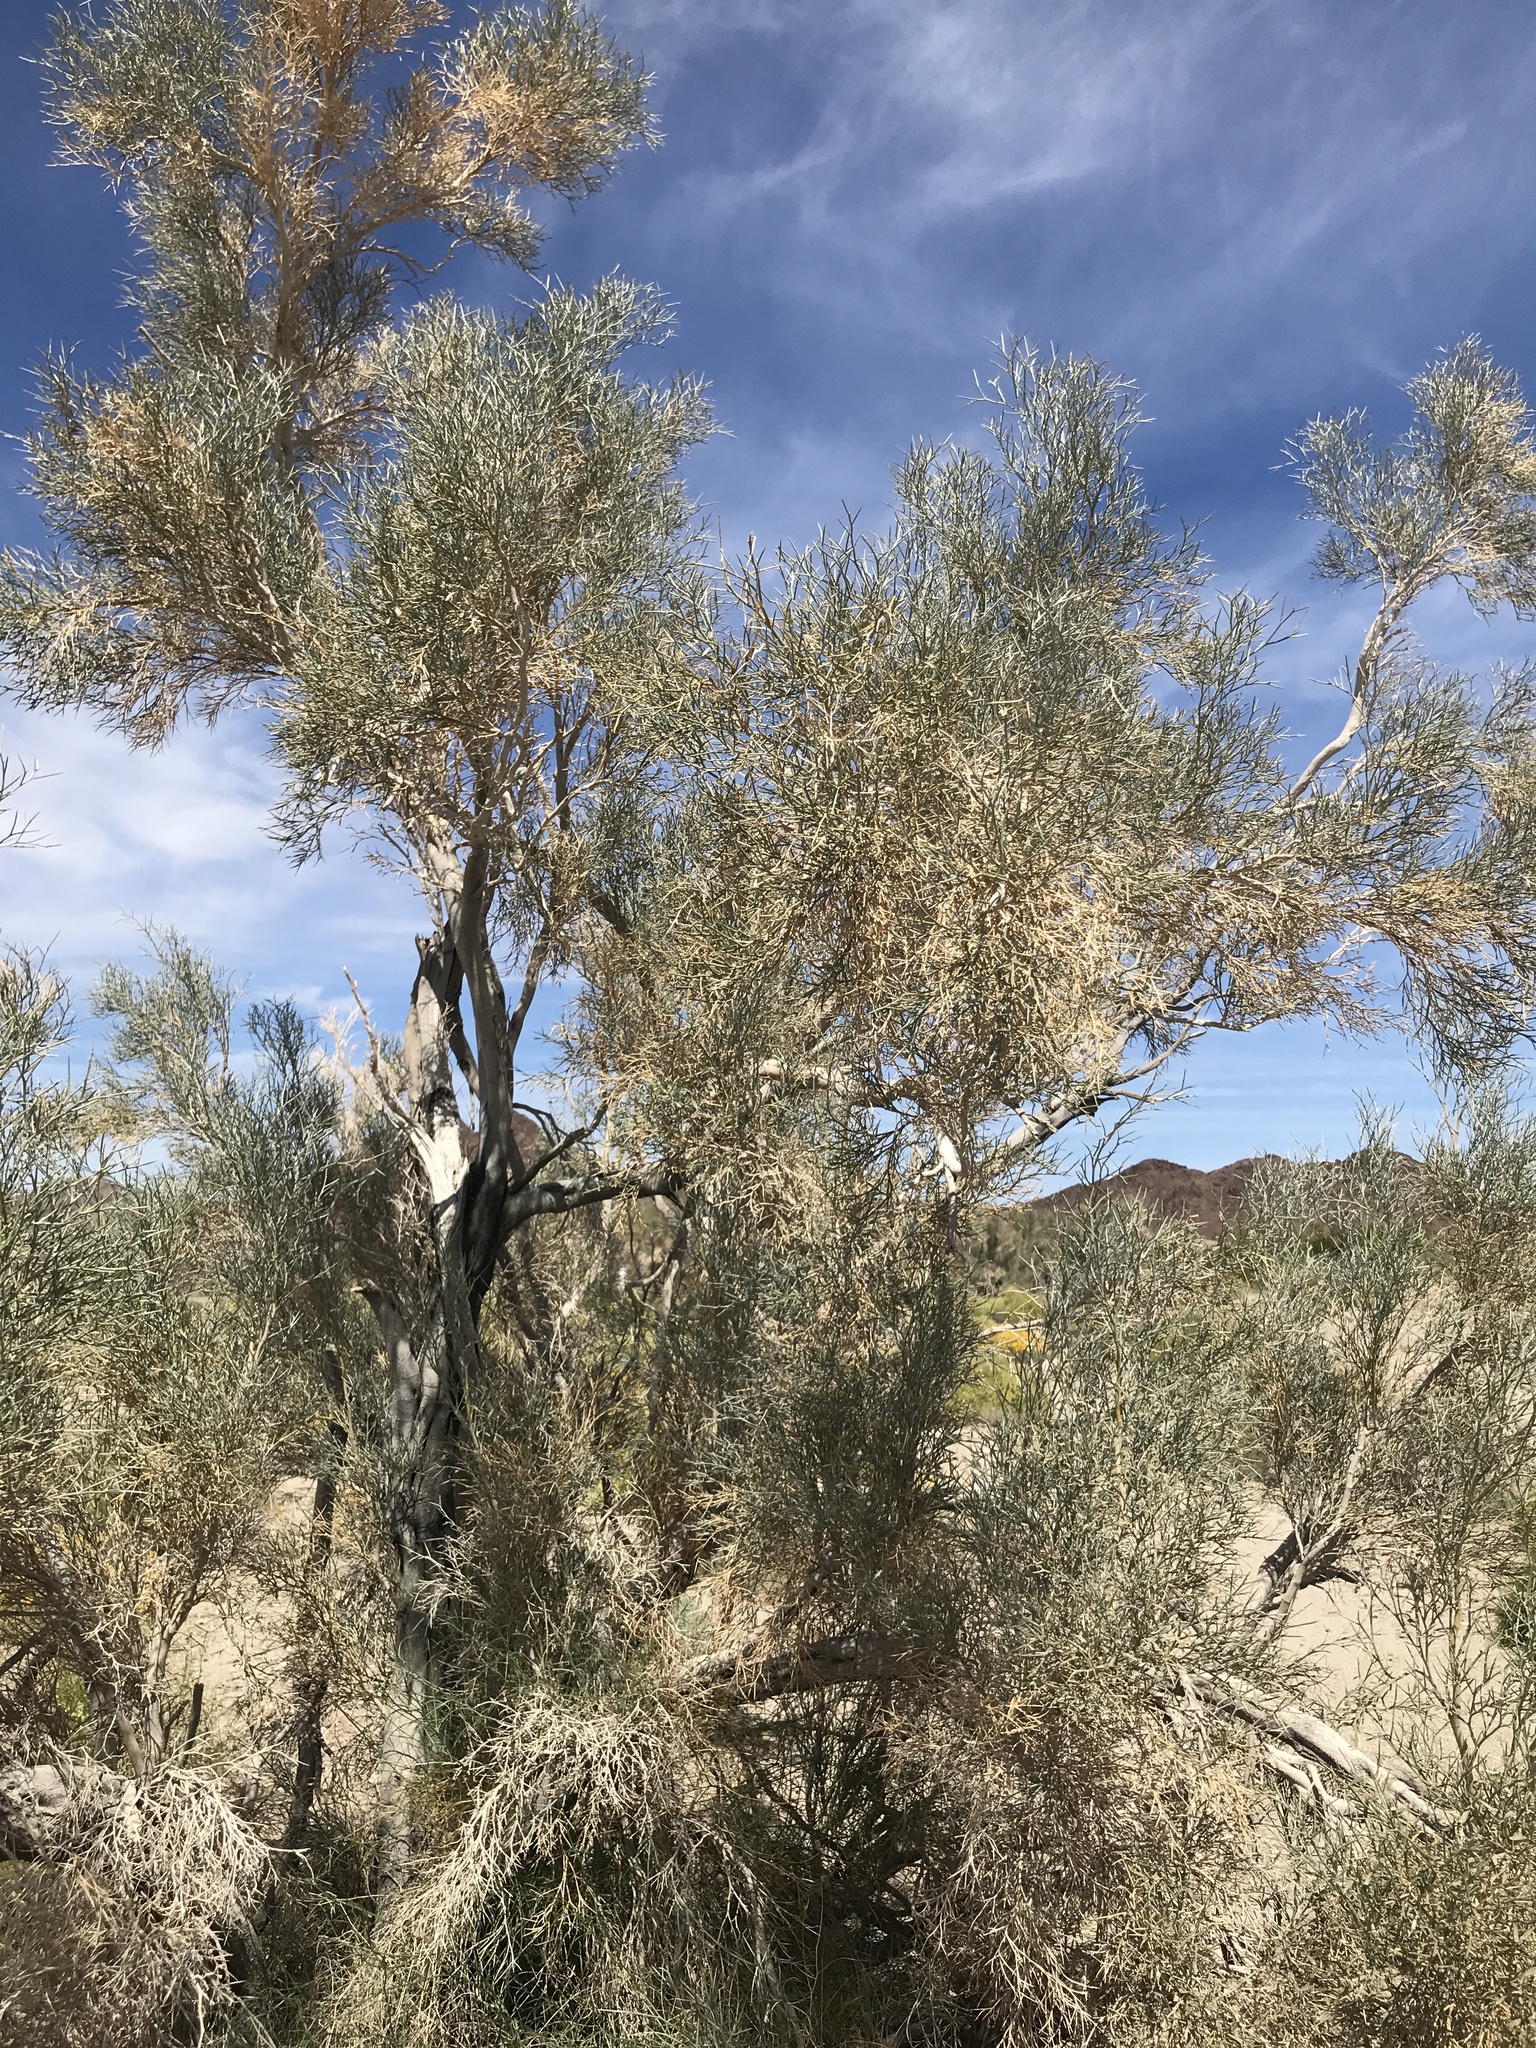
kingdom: Plantae
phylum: Tracheophyta
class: Magnoliopsida
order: Fabales
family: Fabaceae
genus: Psorothamnus
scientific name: Psorothamnus spinosus
